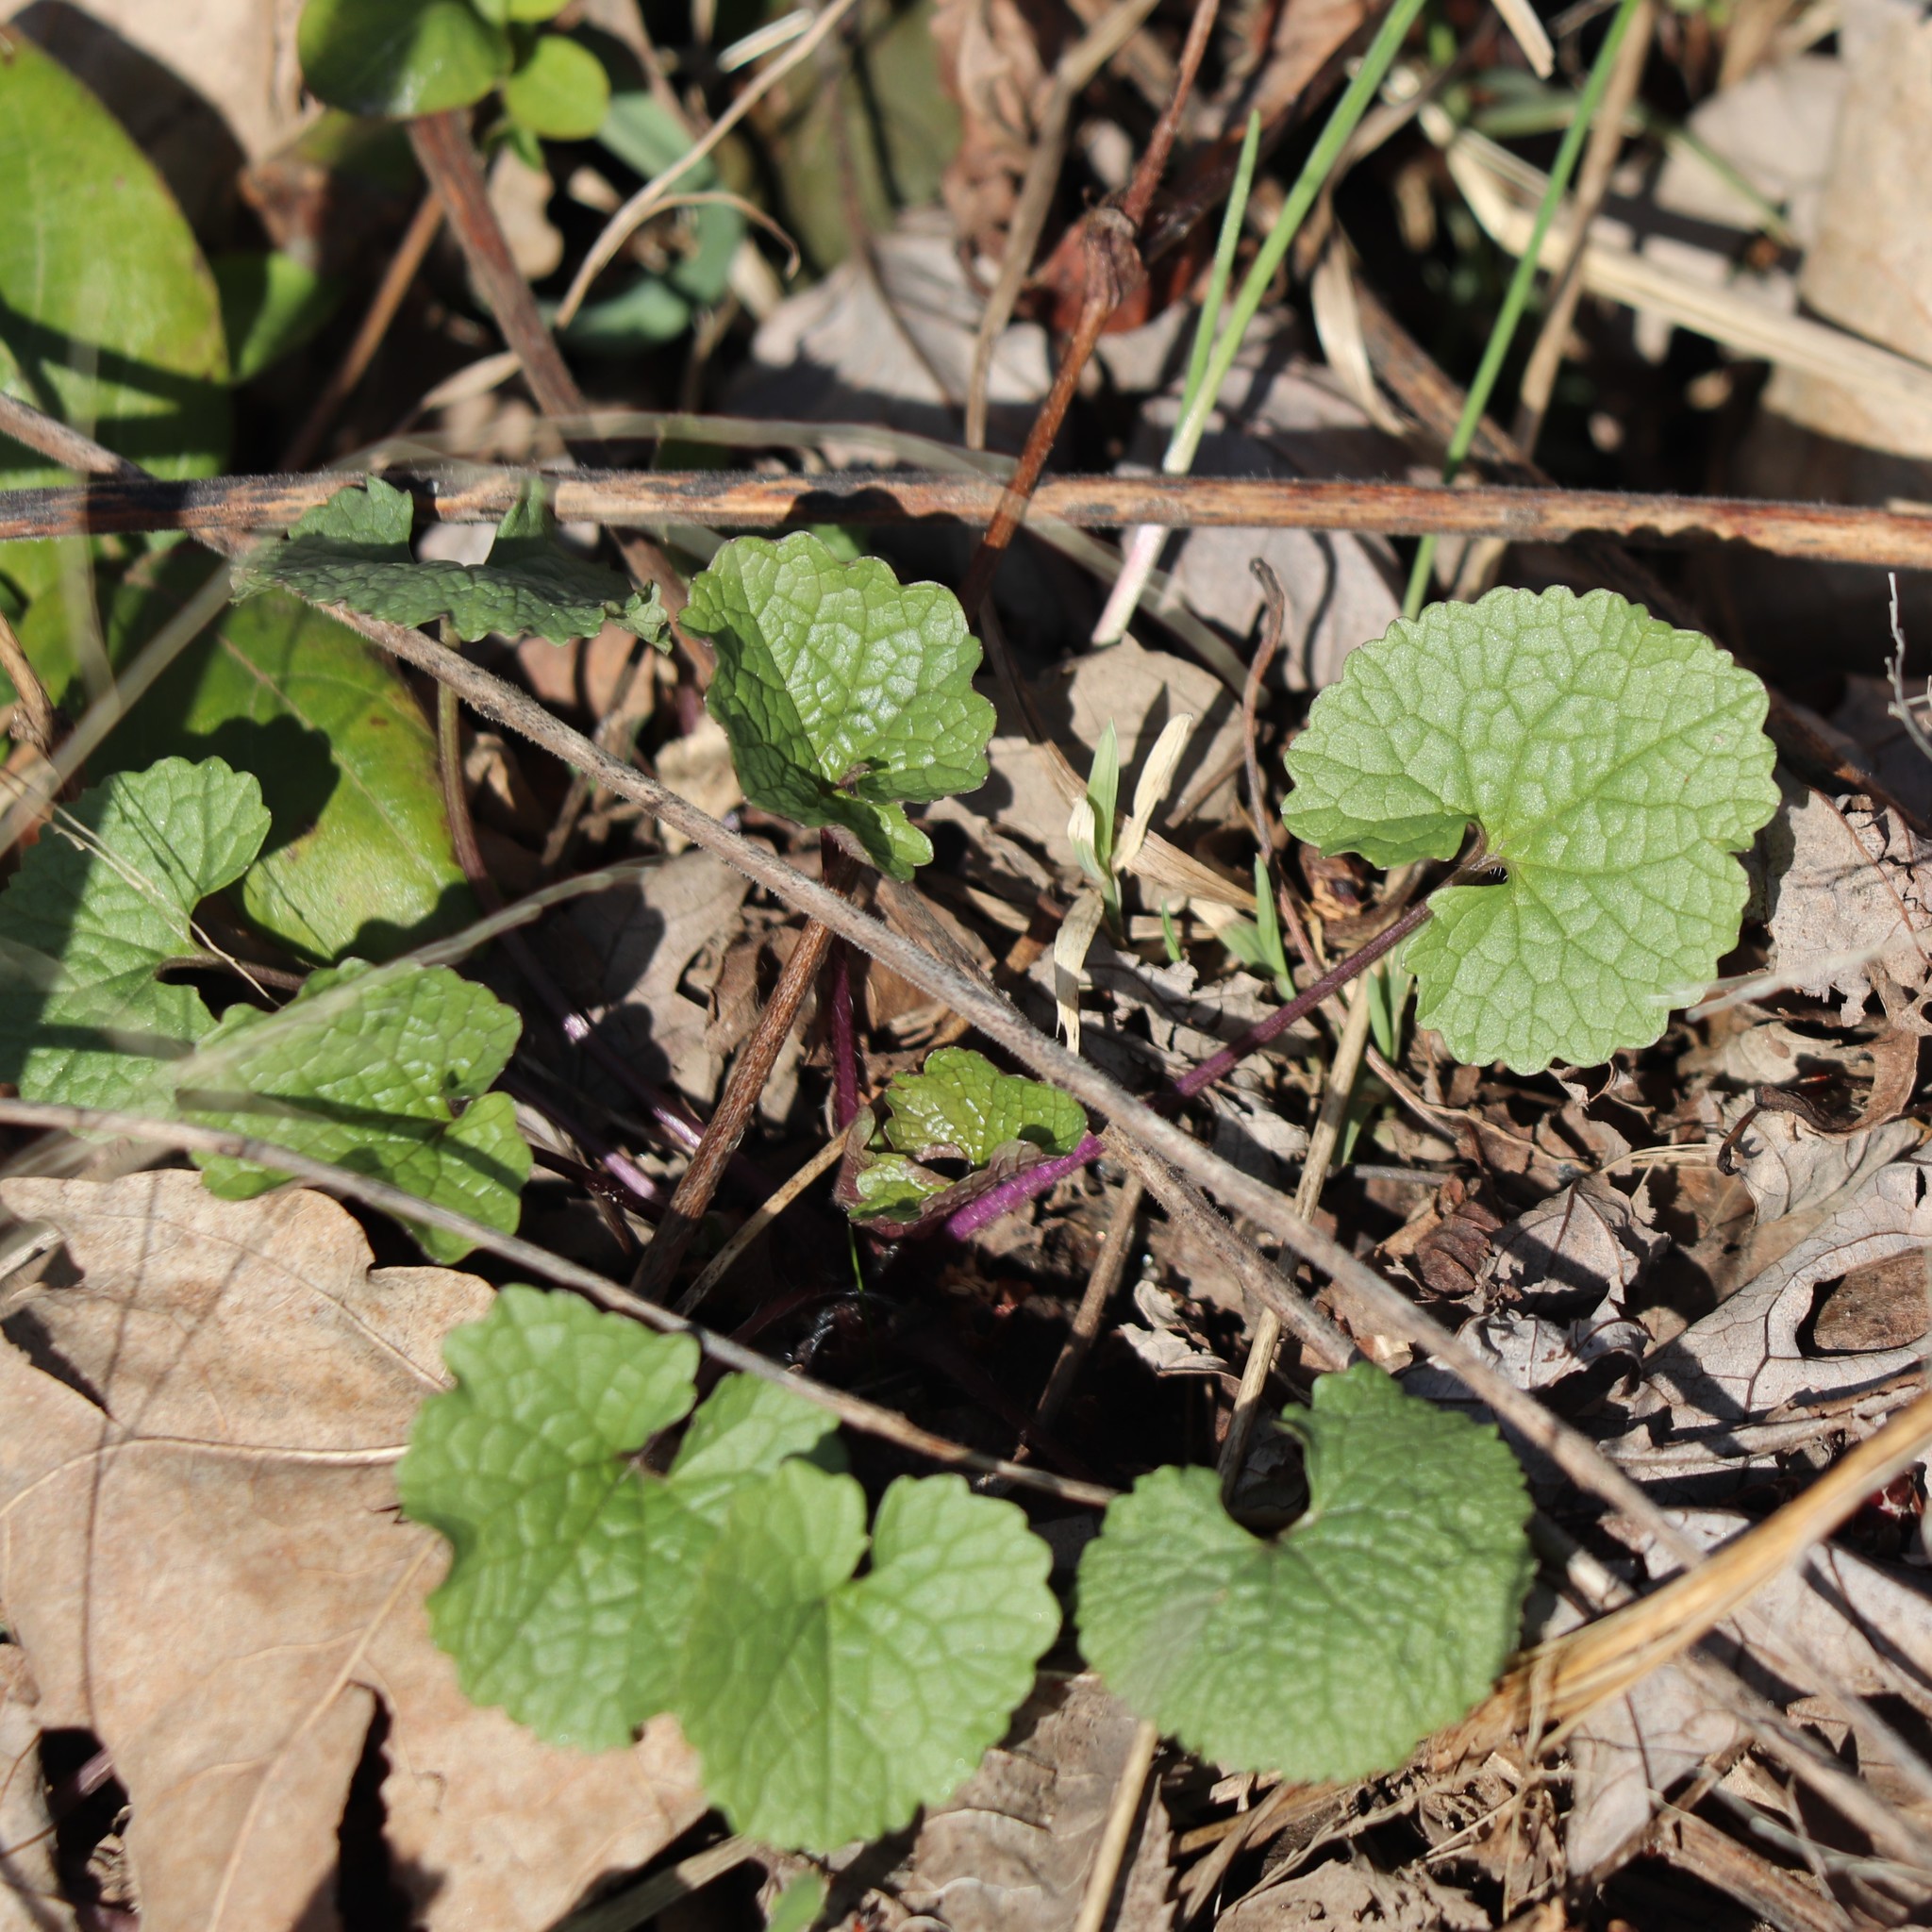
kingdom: Plantae
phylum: Tracheophyta
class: Magnoliopsida
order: Brassicales
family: Brassicaceae
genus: Alliaria
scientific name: Alliaria petiolata
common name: Garlic mustard
